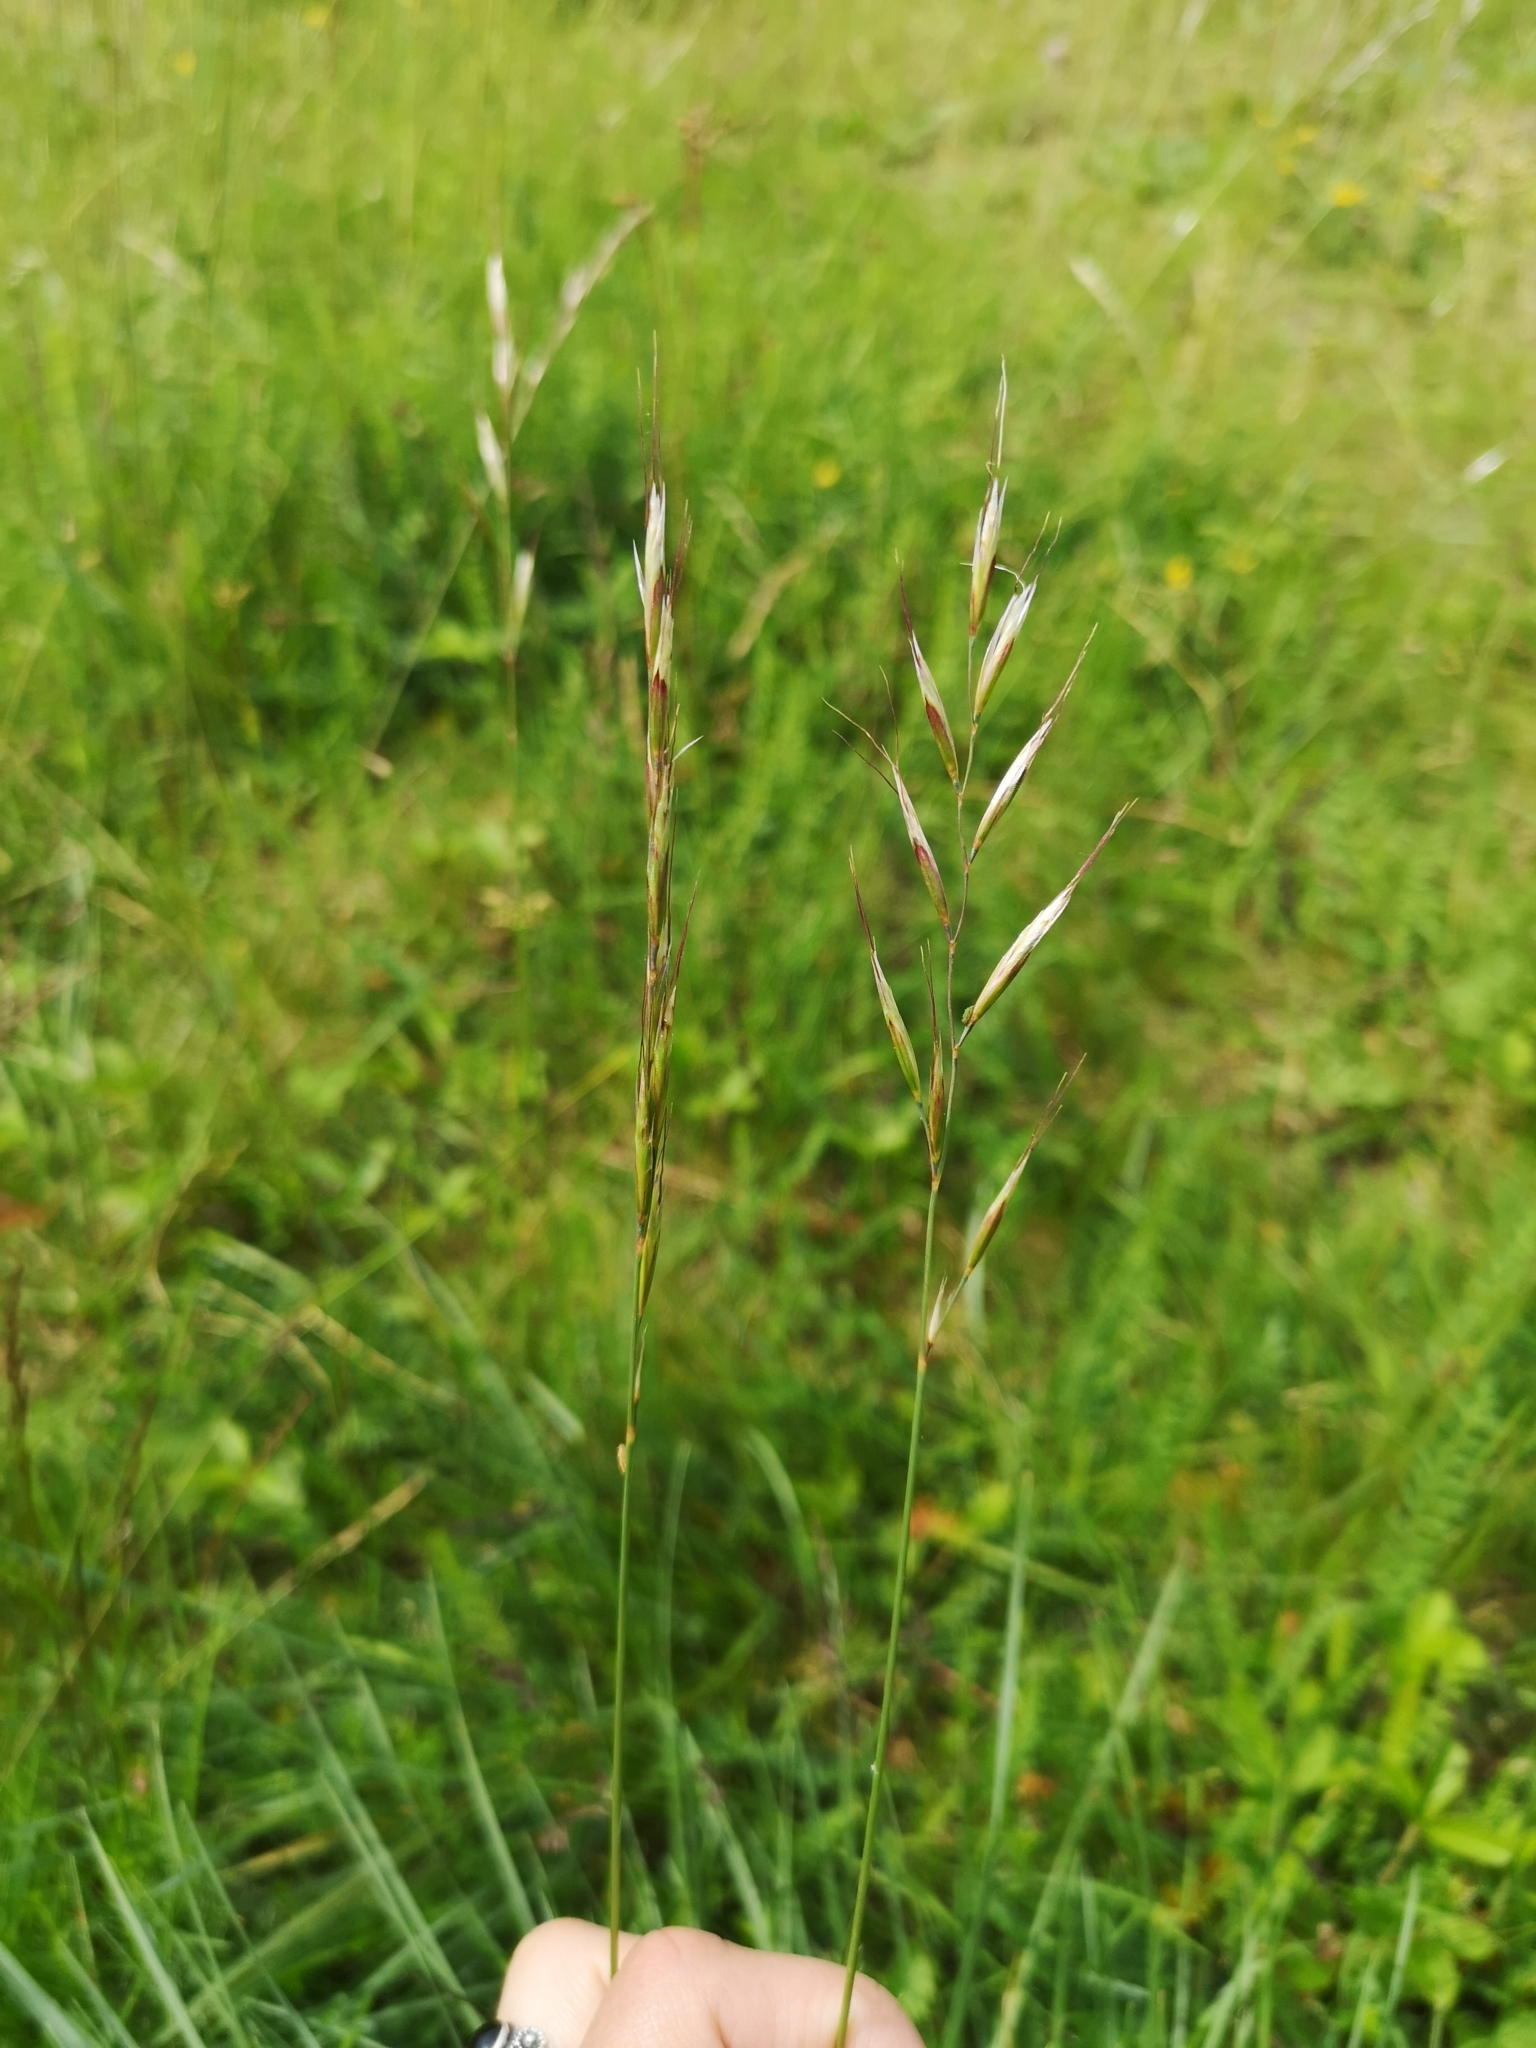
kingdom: Plantae
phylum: Tracheophyta
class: Liliopsida
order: Poales
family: Poaceae
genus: Helictochloa
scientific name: Helictochloa pratensis
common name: Meadow oat grass
